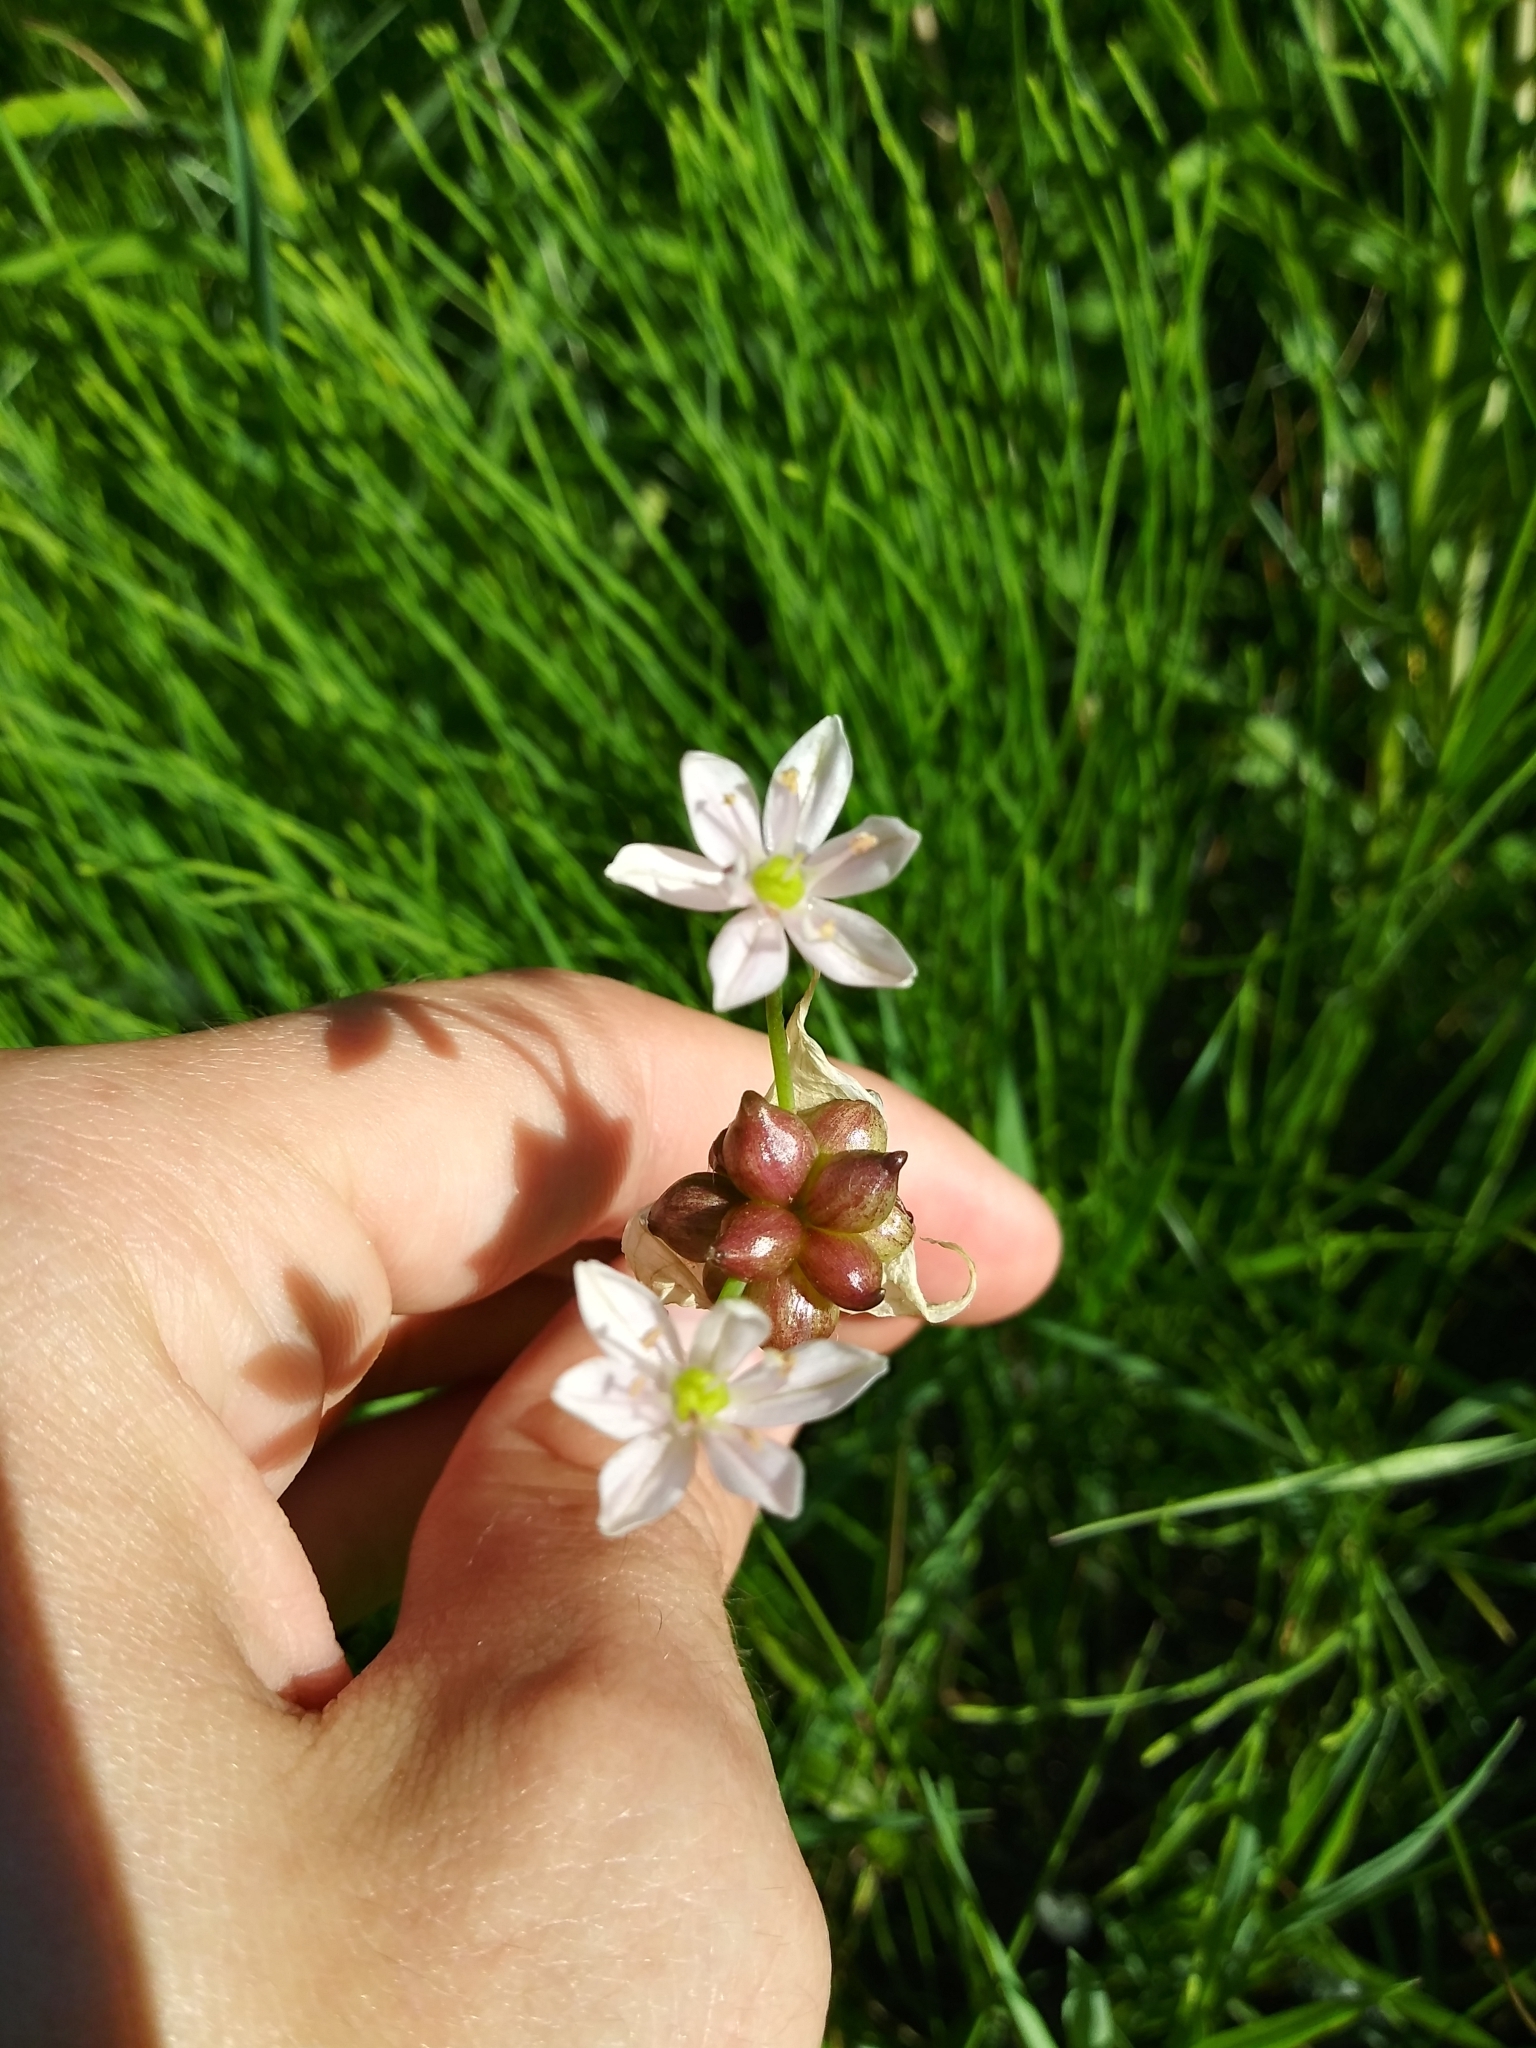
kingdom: Plantae
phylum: Tracheophyta
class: Liliopsida
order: Asparagales
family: Amaryllidaceae
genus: Allium
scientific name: Allium canadense
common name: Meadow garlic
